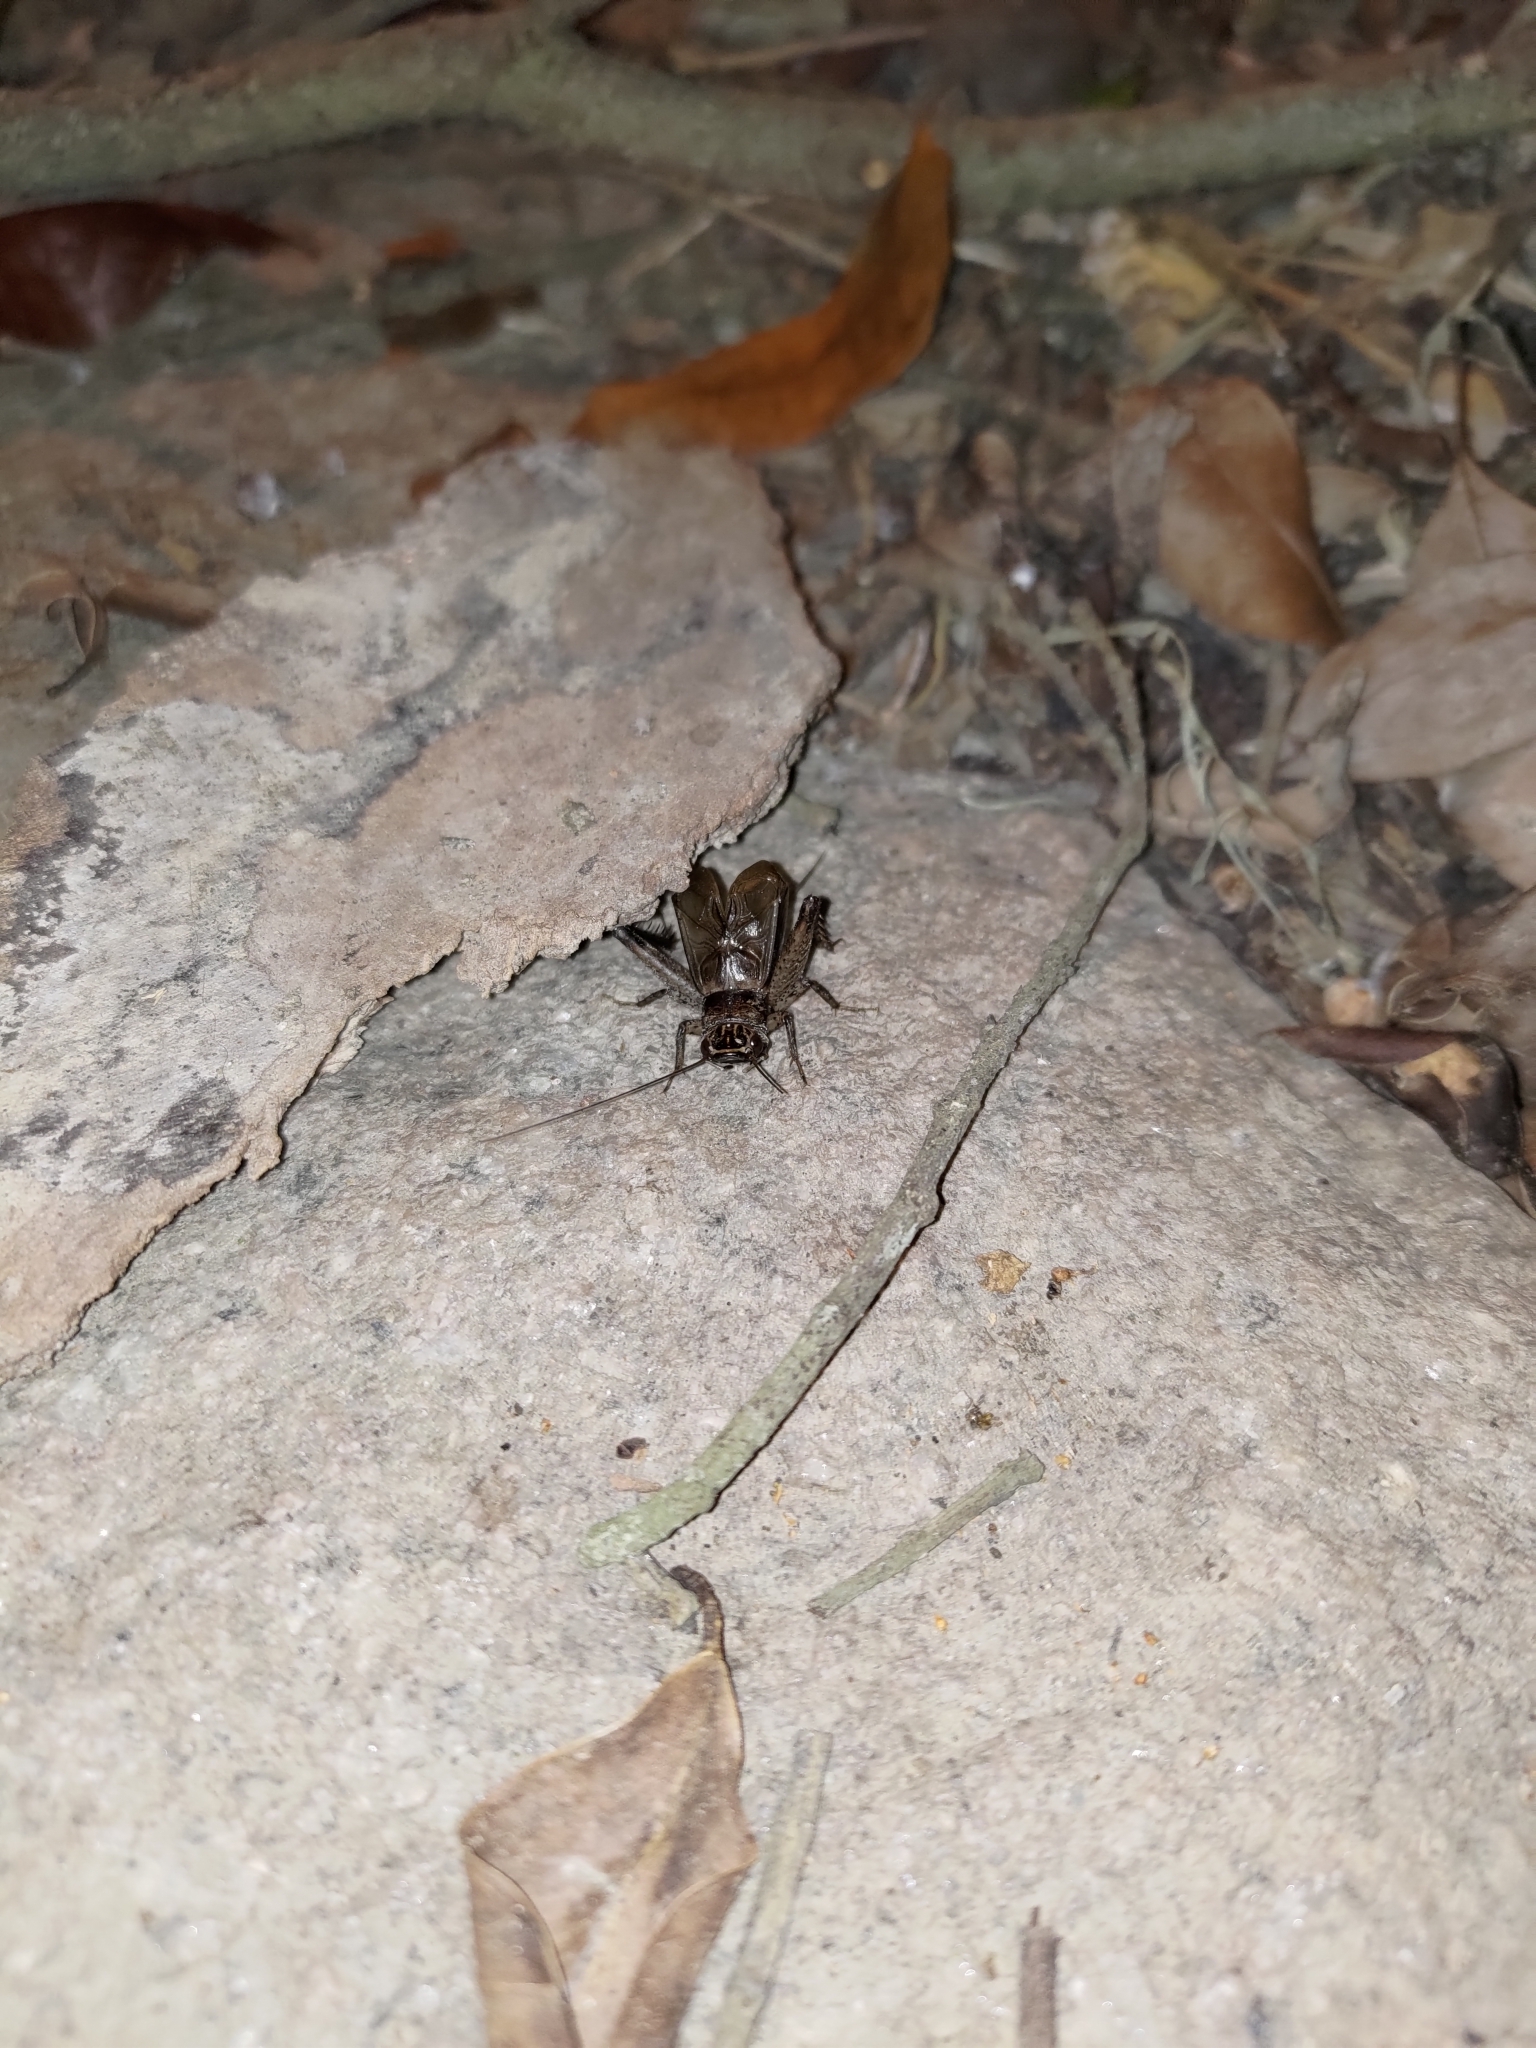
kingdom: Animalia
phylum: Arthropoda
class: Insecta
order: Orthoptera
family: Gryllidae
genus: Loxoblemmus
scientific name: Loxoblemmus equestris
